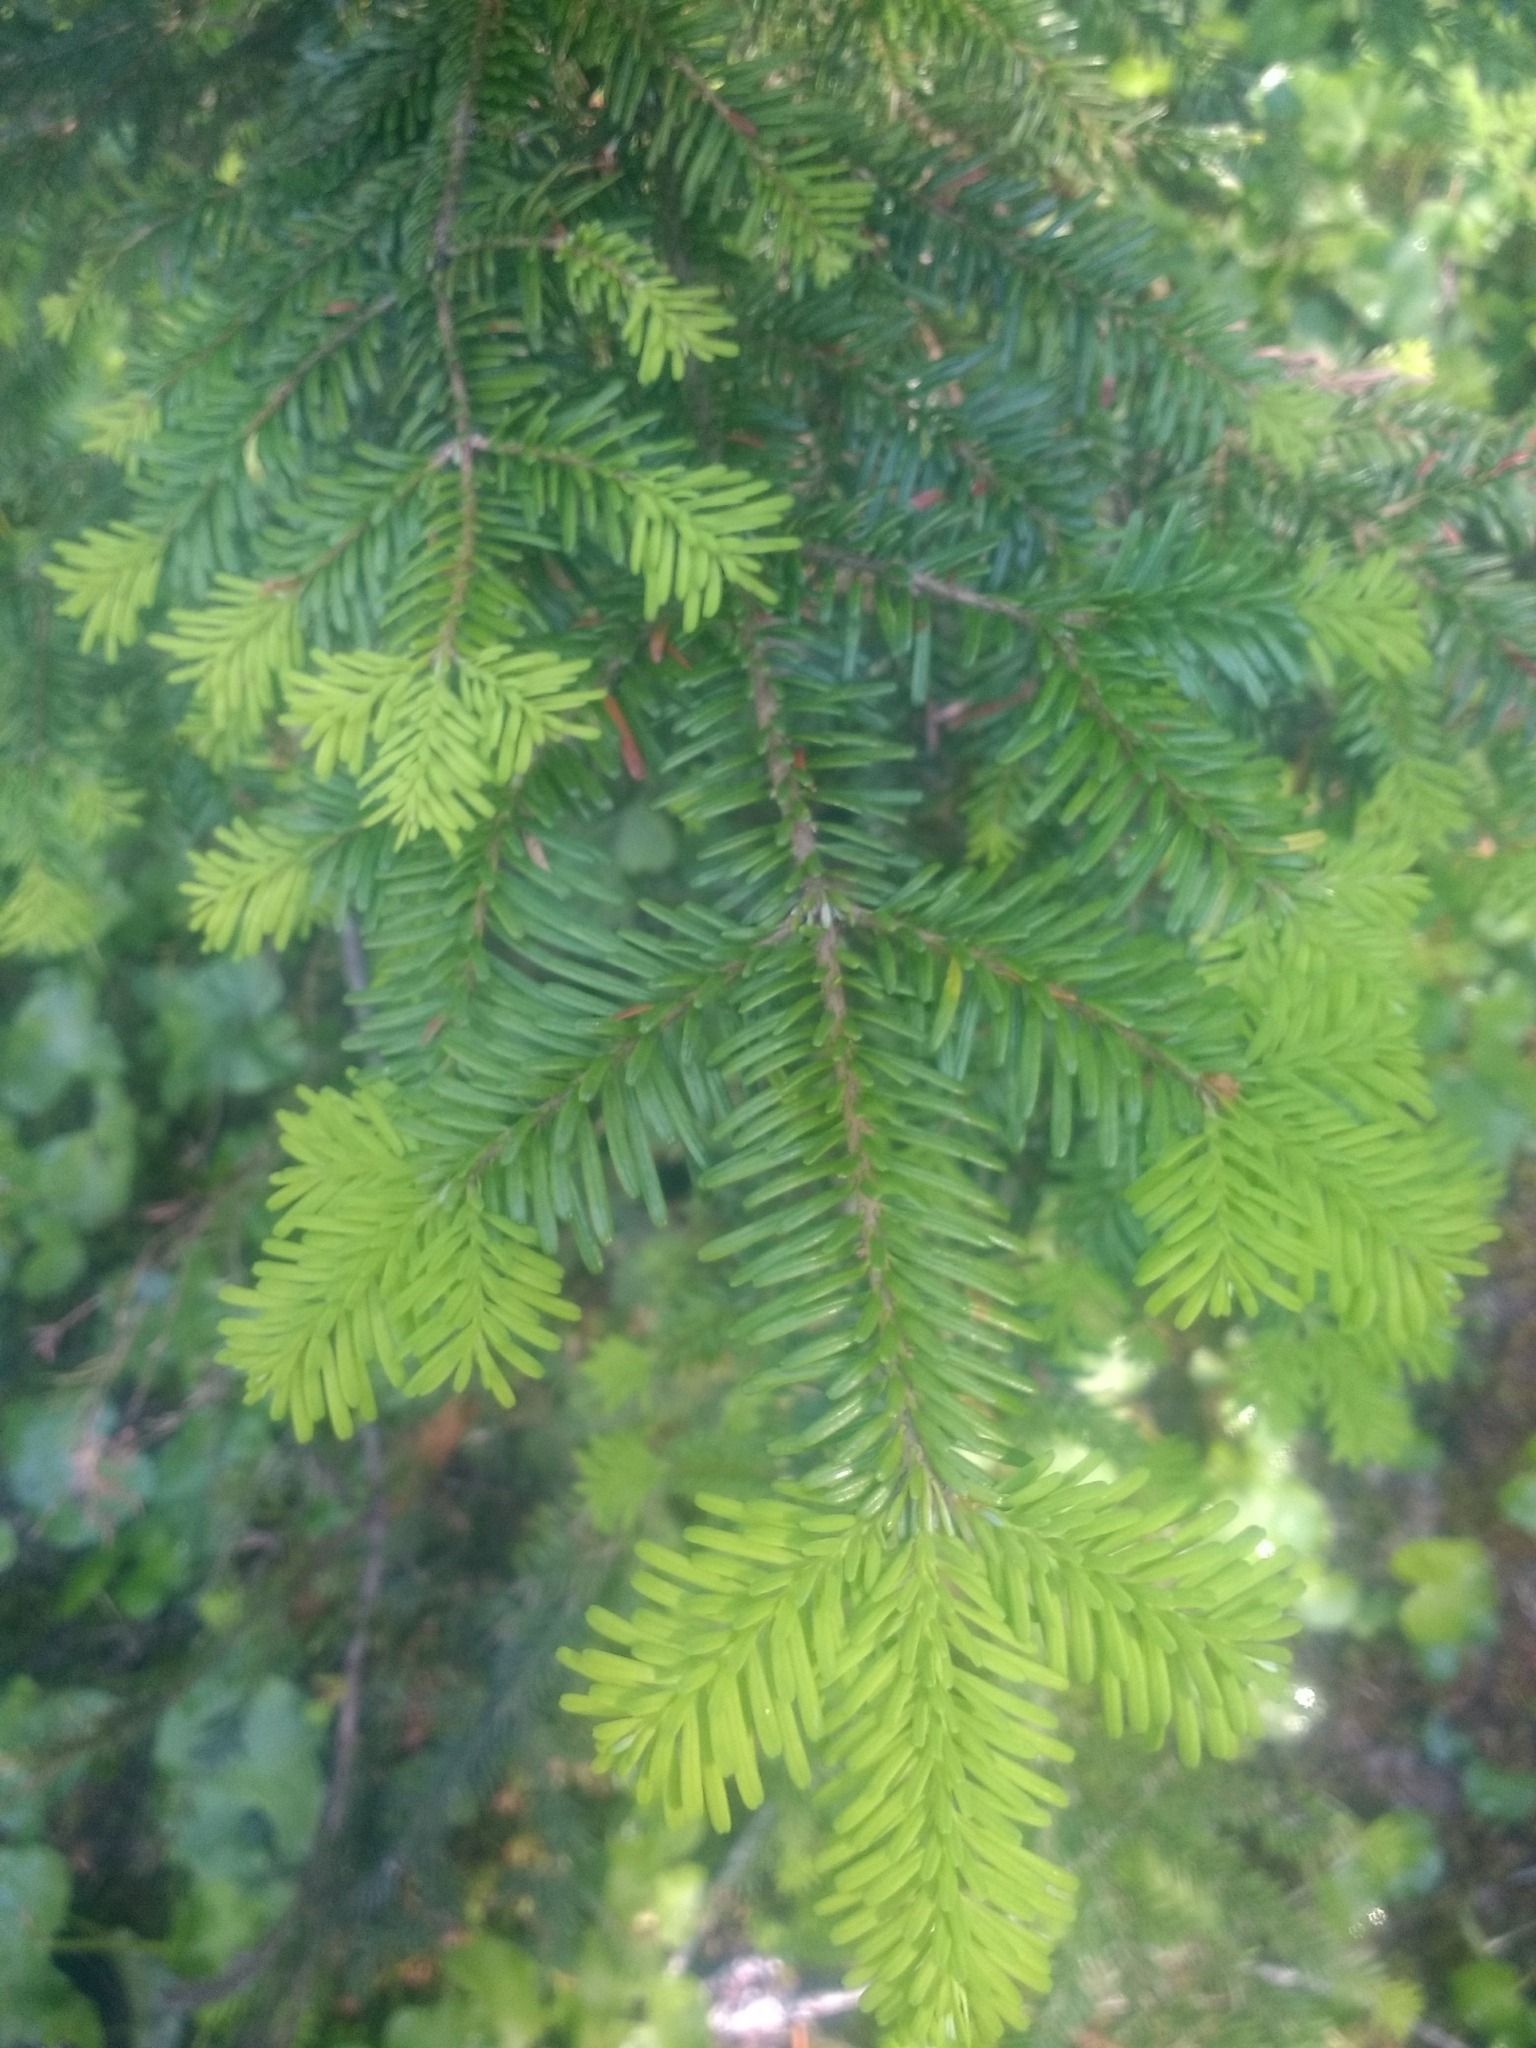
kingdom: Plantae
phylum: Tracheophyta
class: Pinopsida
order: Pinales
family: Pinaceae
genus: Abies
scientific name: Abies amabilis
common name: Pacific silver fir
